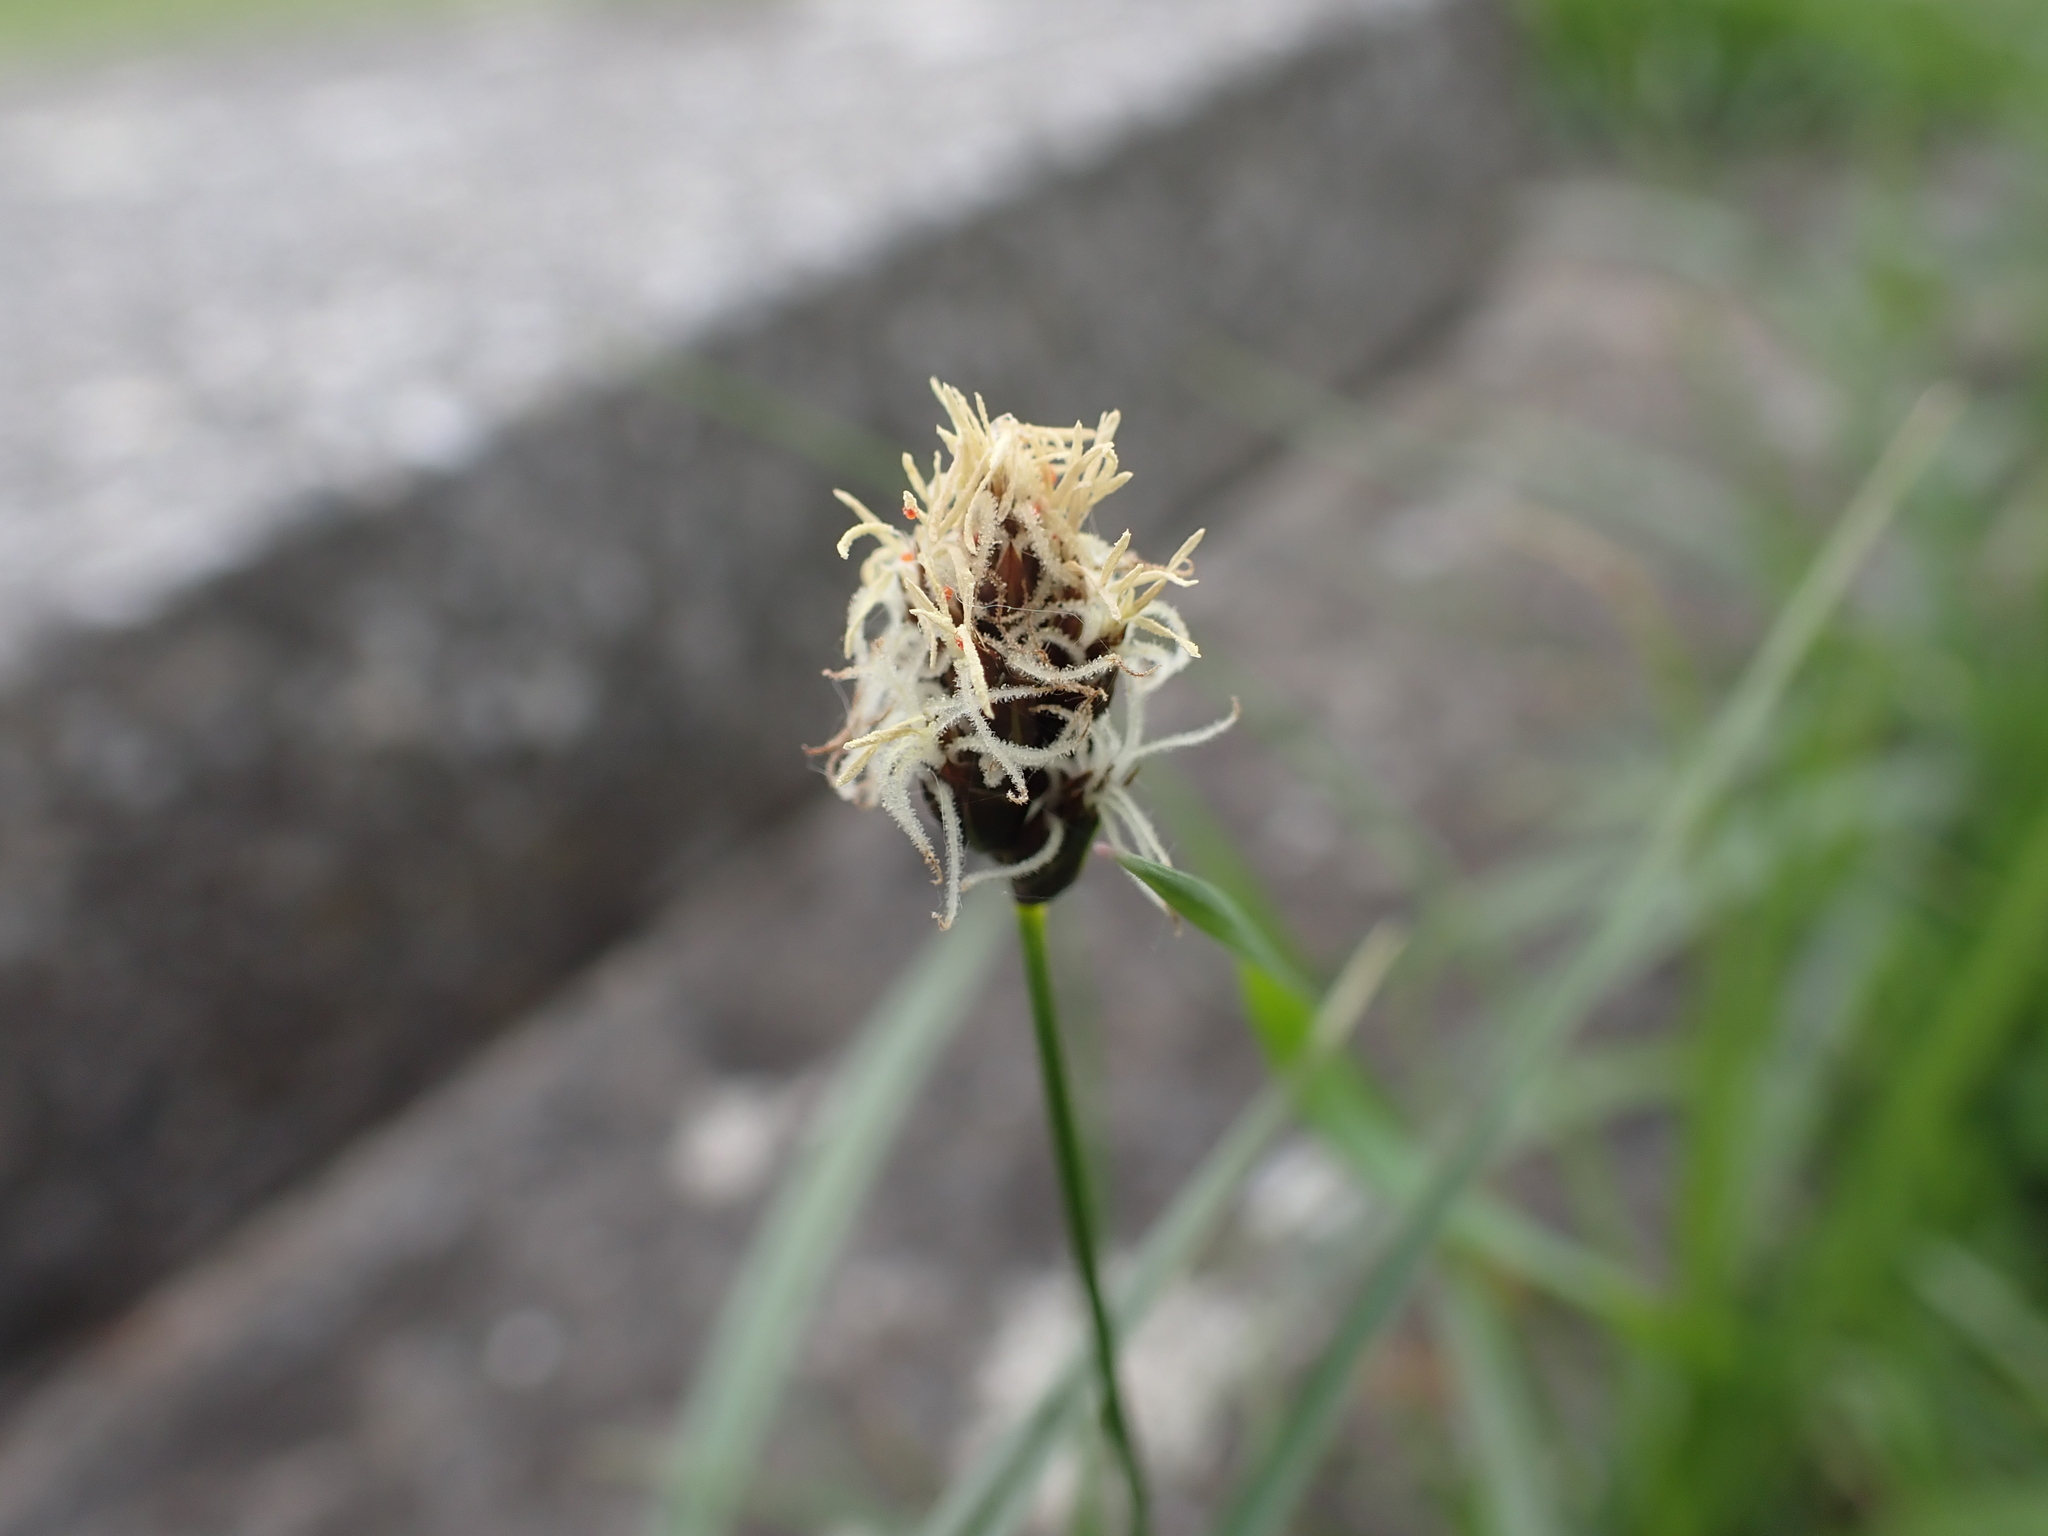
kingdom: Plantae
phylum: Tracheophyta
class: Liliopsida
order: Poales
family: Cyperaceae
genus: Carex
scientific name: Carex hirta
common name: Hairy sedge
